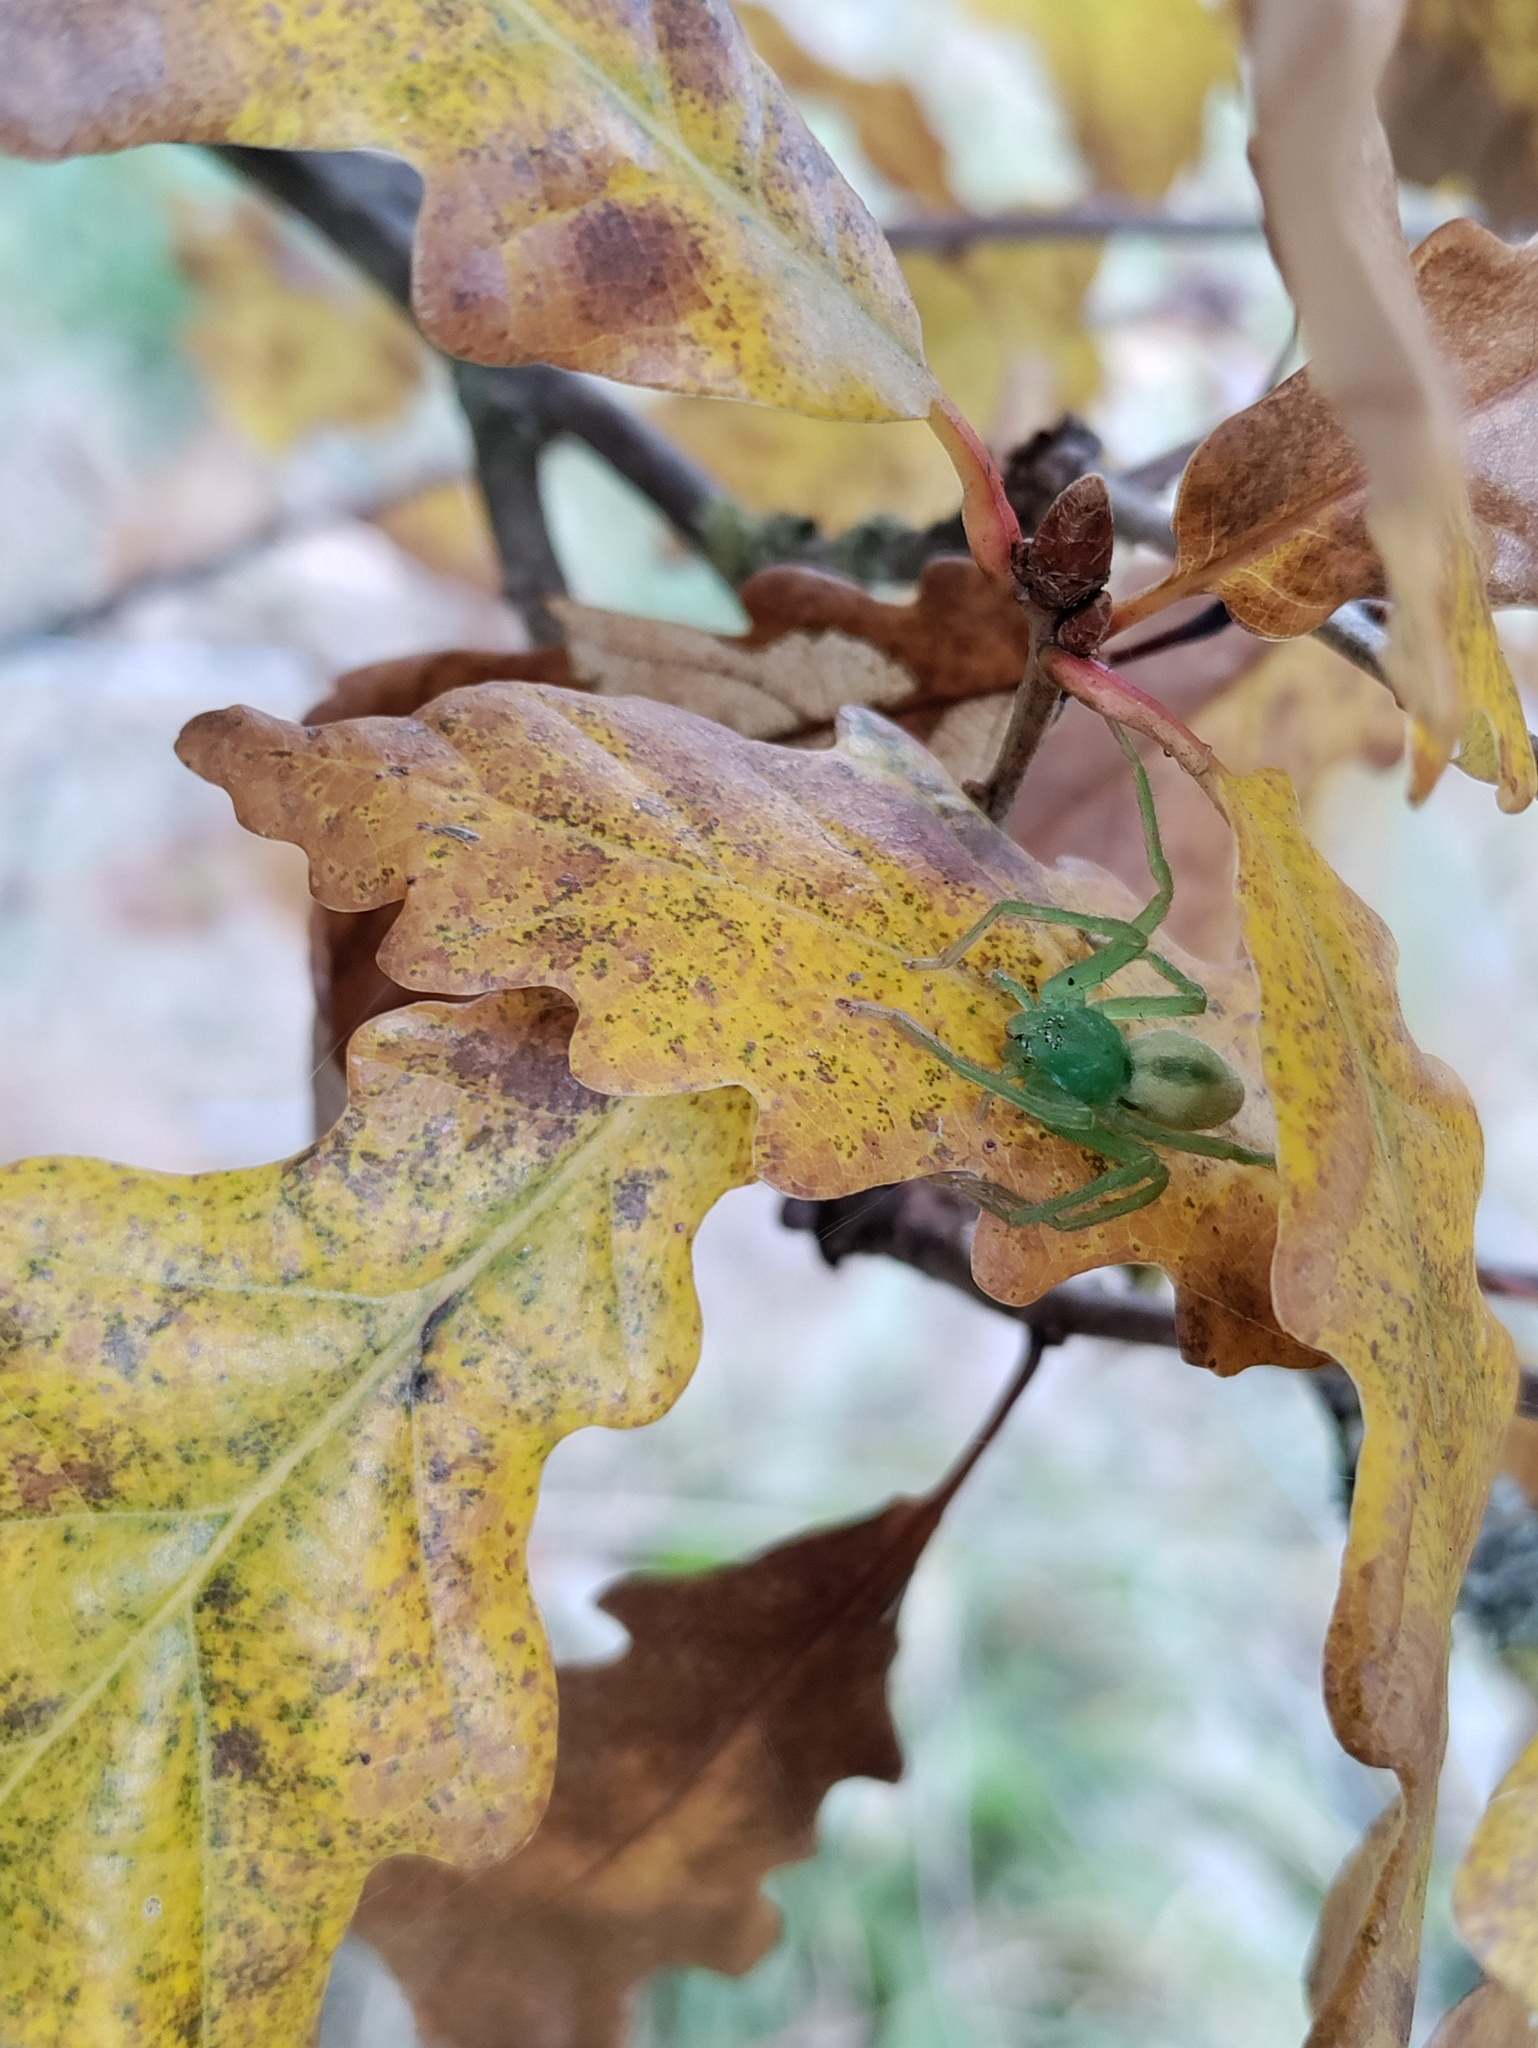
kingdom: Animalia
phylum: Arthropoda
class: Arachnida
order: Araneae
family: Sparassidae
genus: Micrommata
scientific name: Micrommata virescens
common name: Green spider
